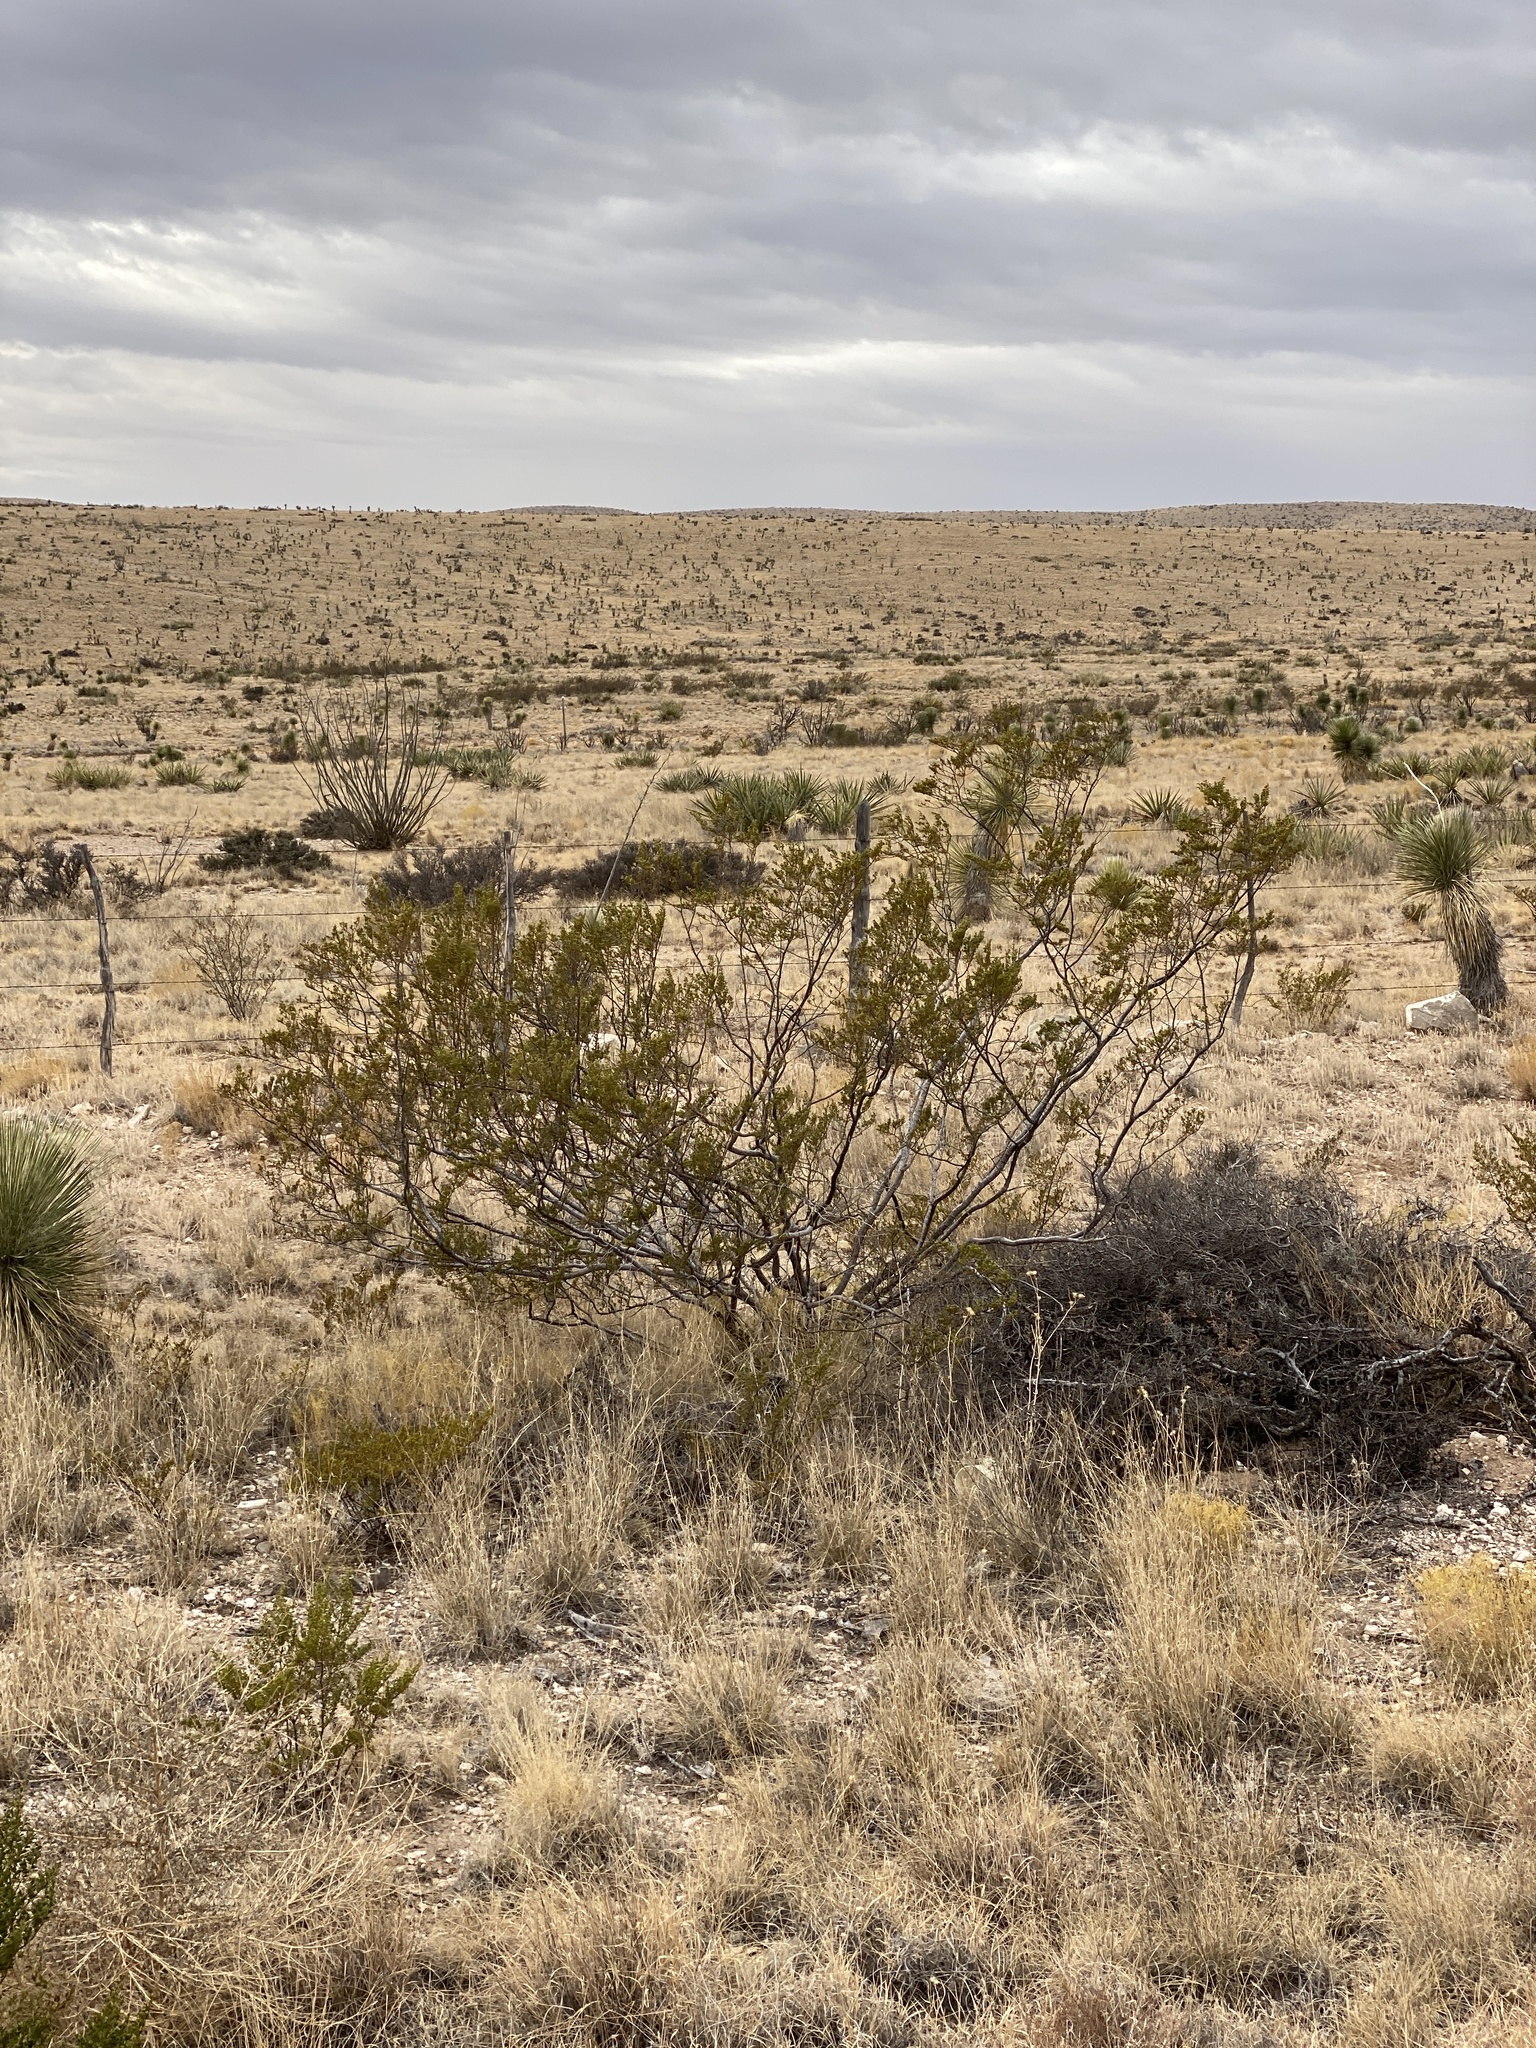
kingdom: Plantae
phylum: Tracheophyta
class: Magnoliopsida
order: Zygophyllales
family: Zygophyllaceae
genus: Larrea
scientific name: Larrea tridentata
